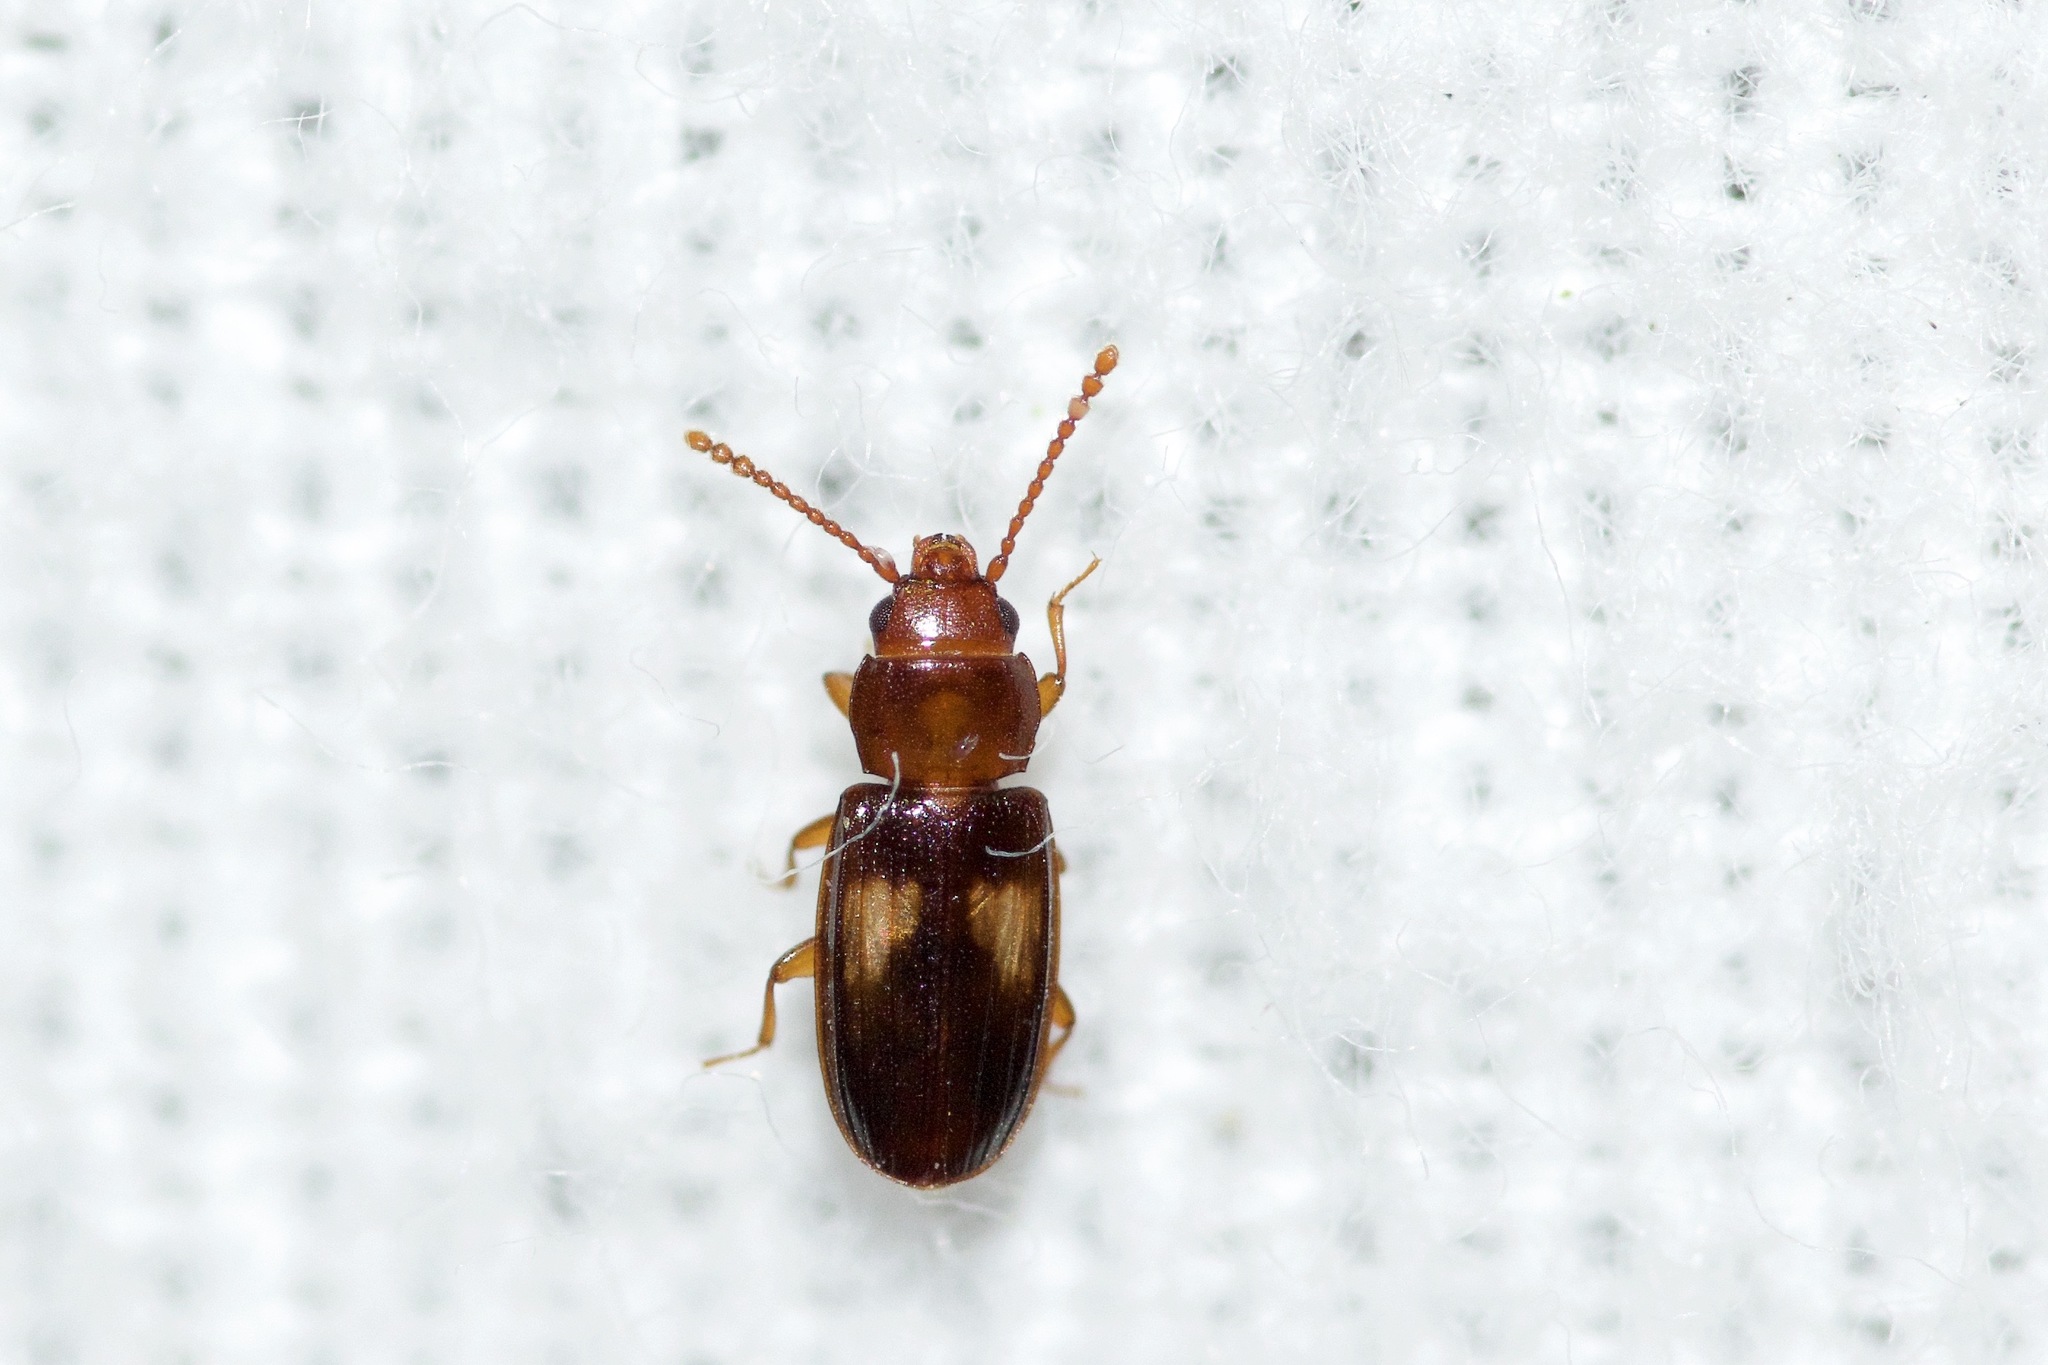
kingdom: Animalia
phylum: Arthropoda
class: Insecta
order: Coleoptera
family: Laemophloeidae
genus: Laemophloeus
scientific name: Laemophloeus fasciatus
